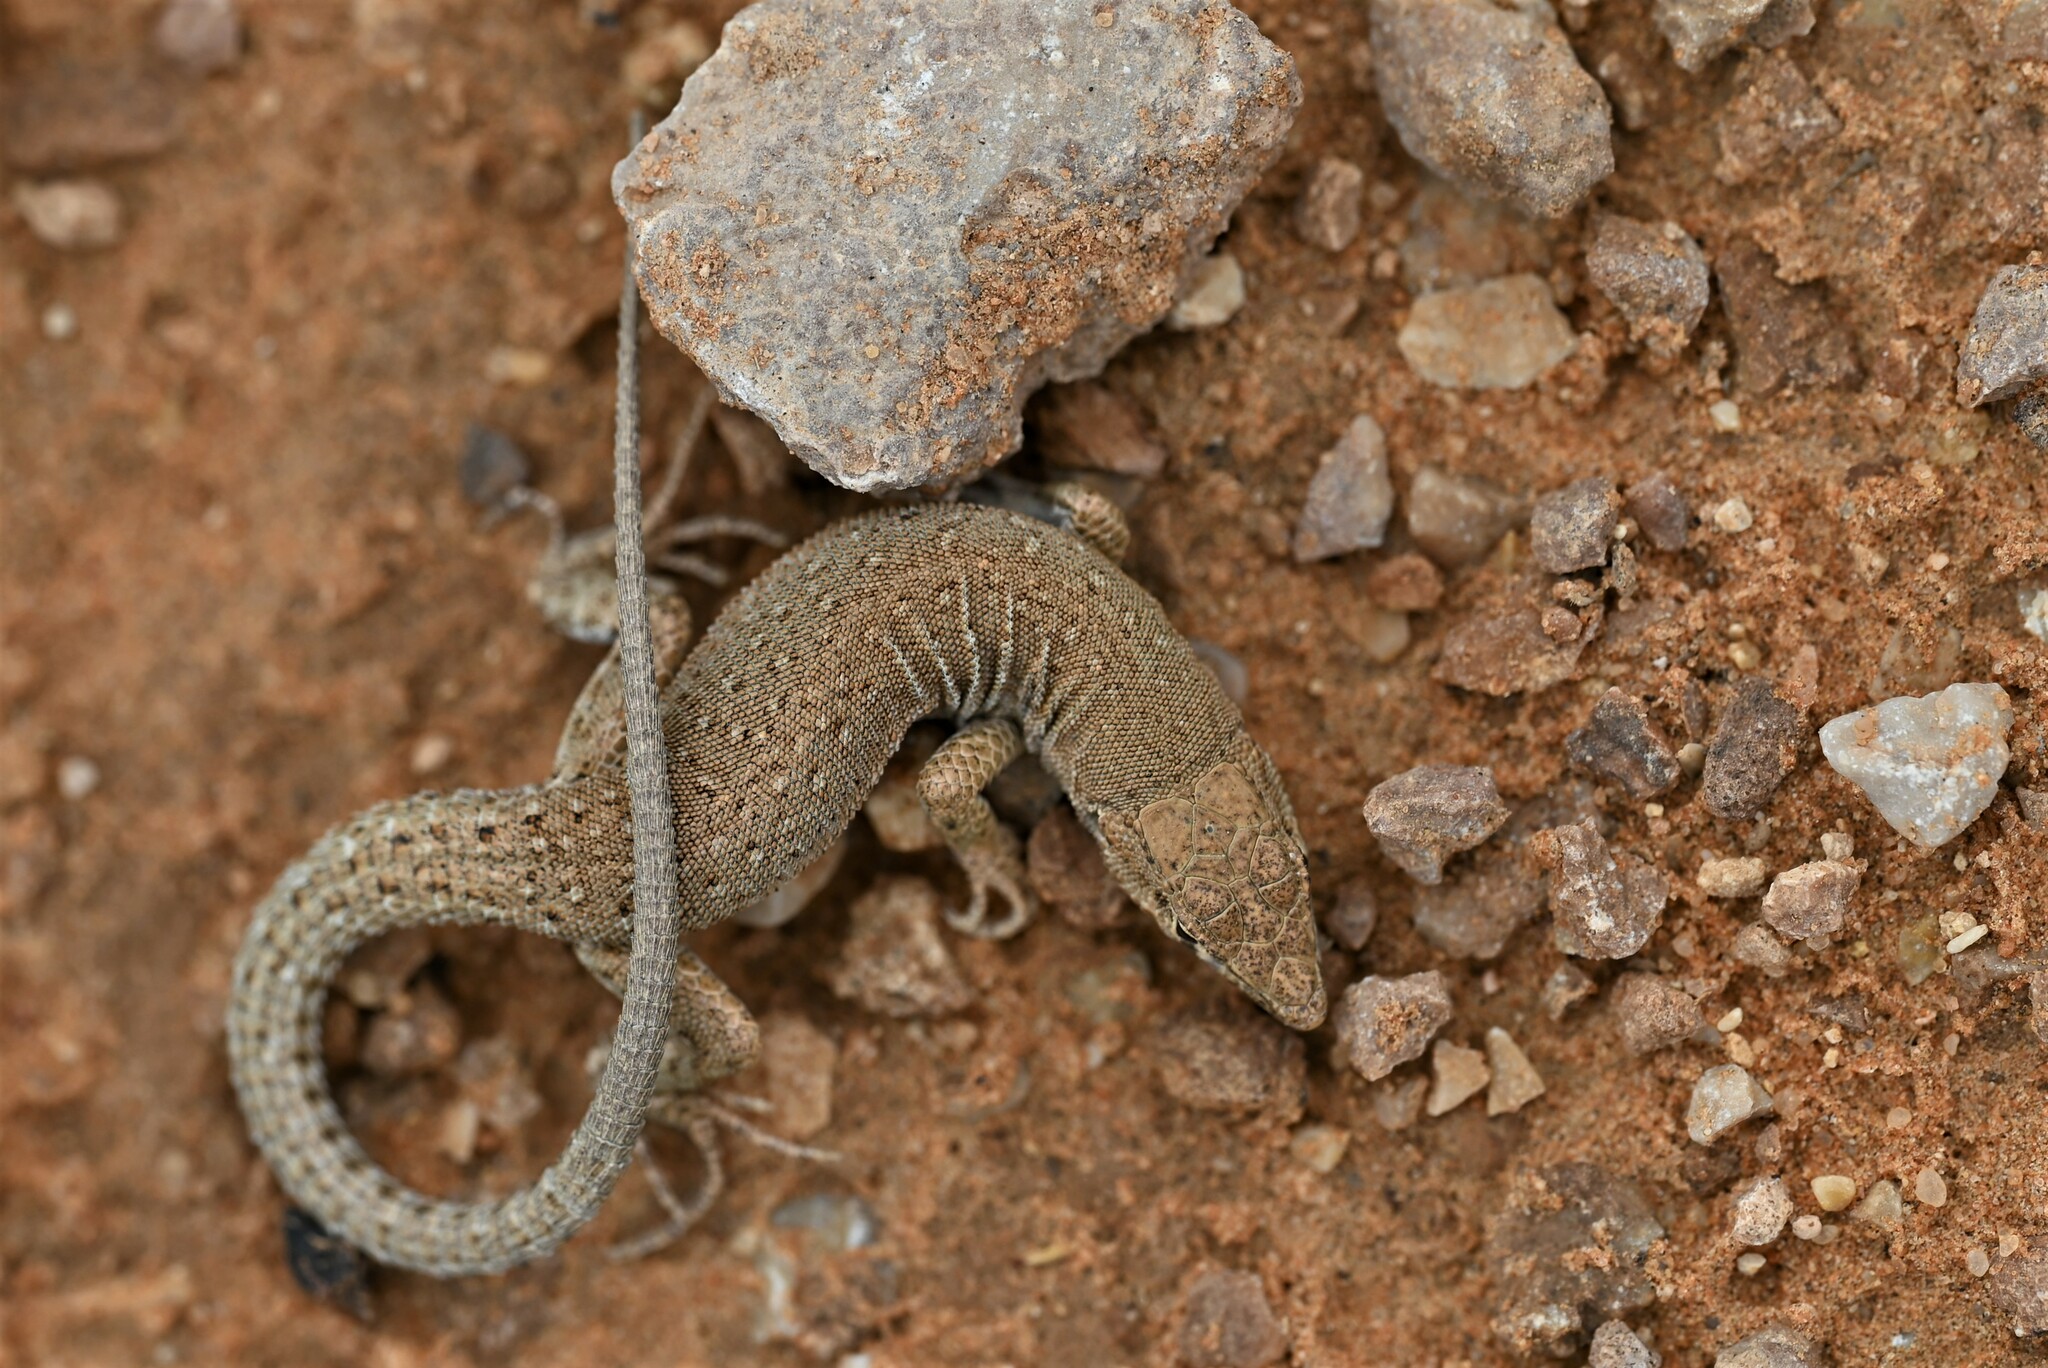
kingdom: Animalia
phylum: Chordata
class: Squamata
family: Lacertidae
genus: Mesalina
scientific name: Mesalina guttulata
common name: Desert lacerta
